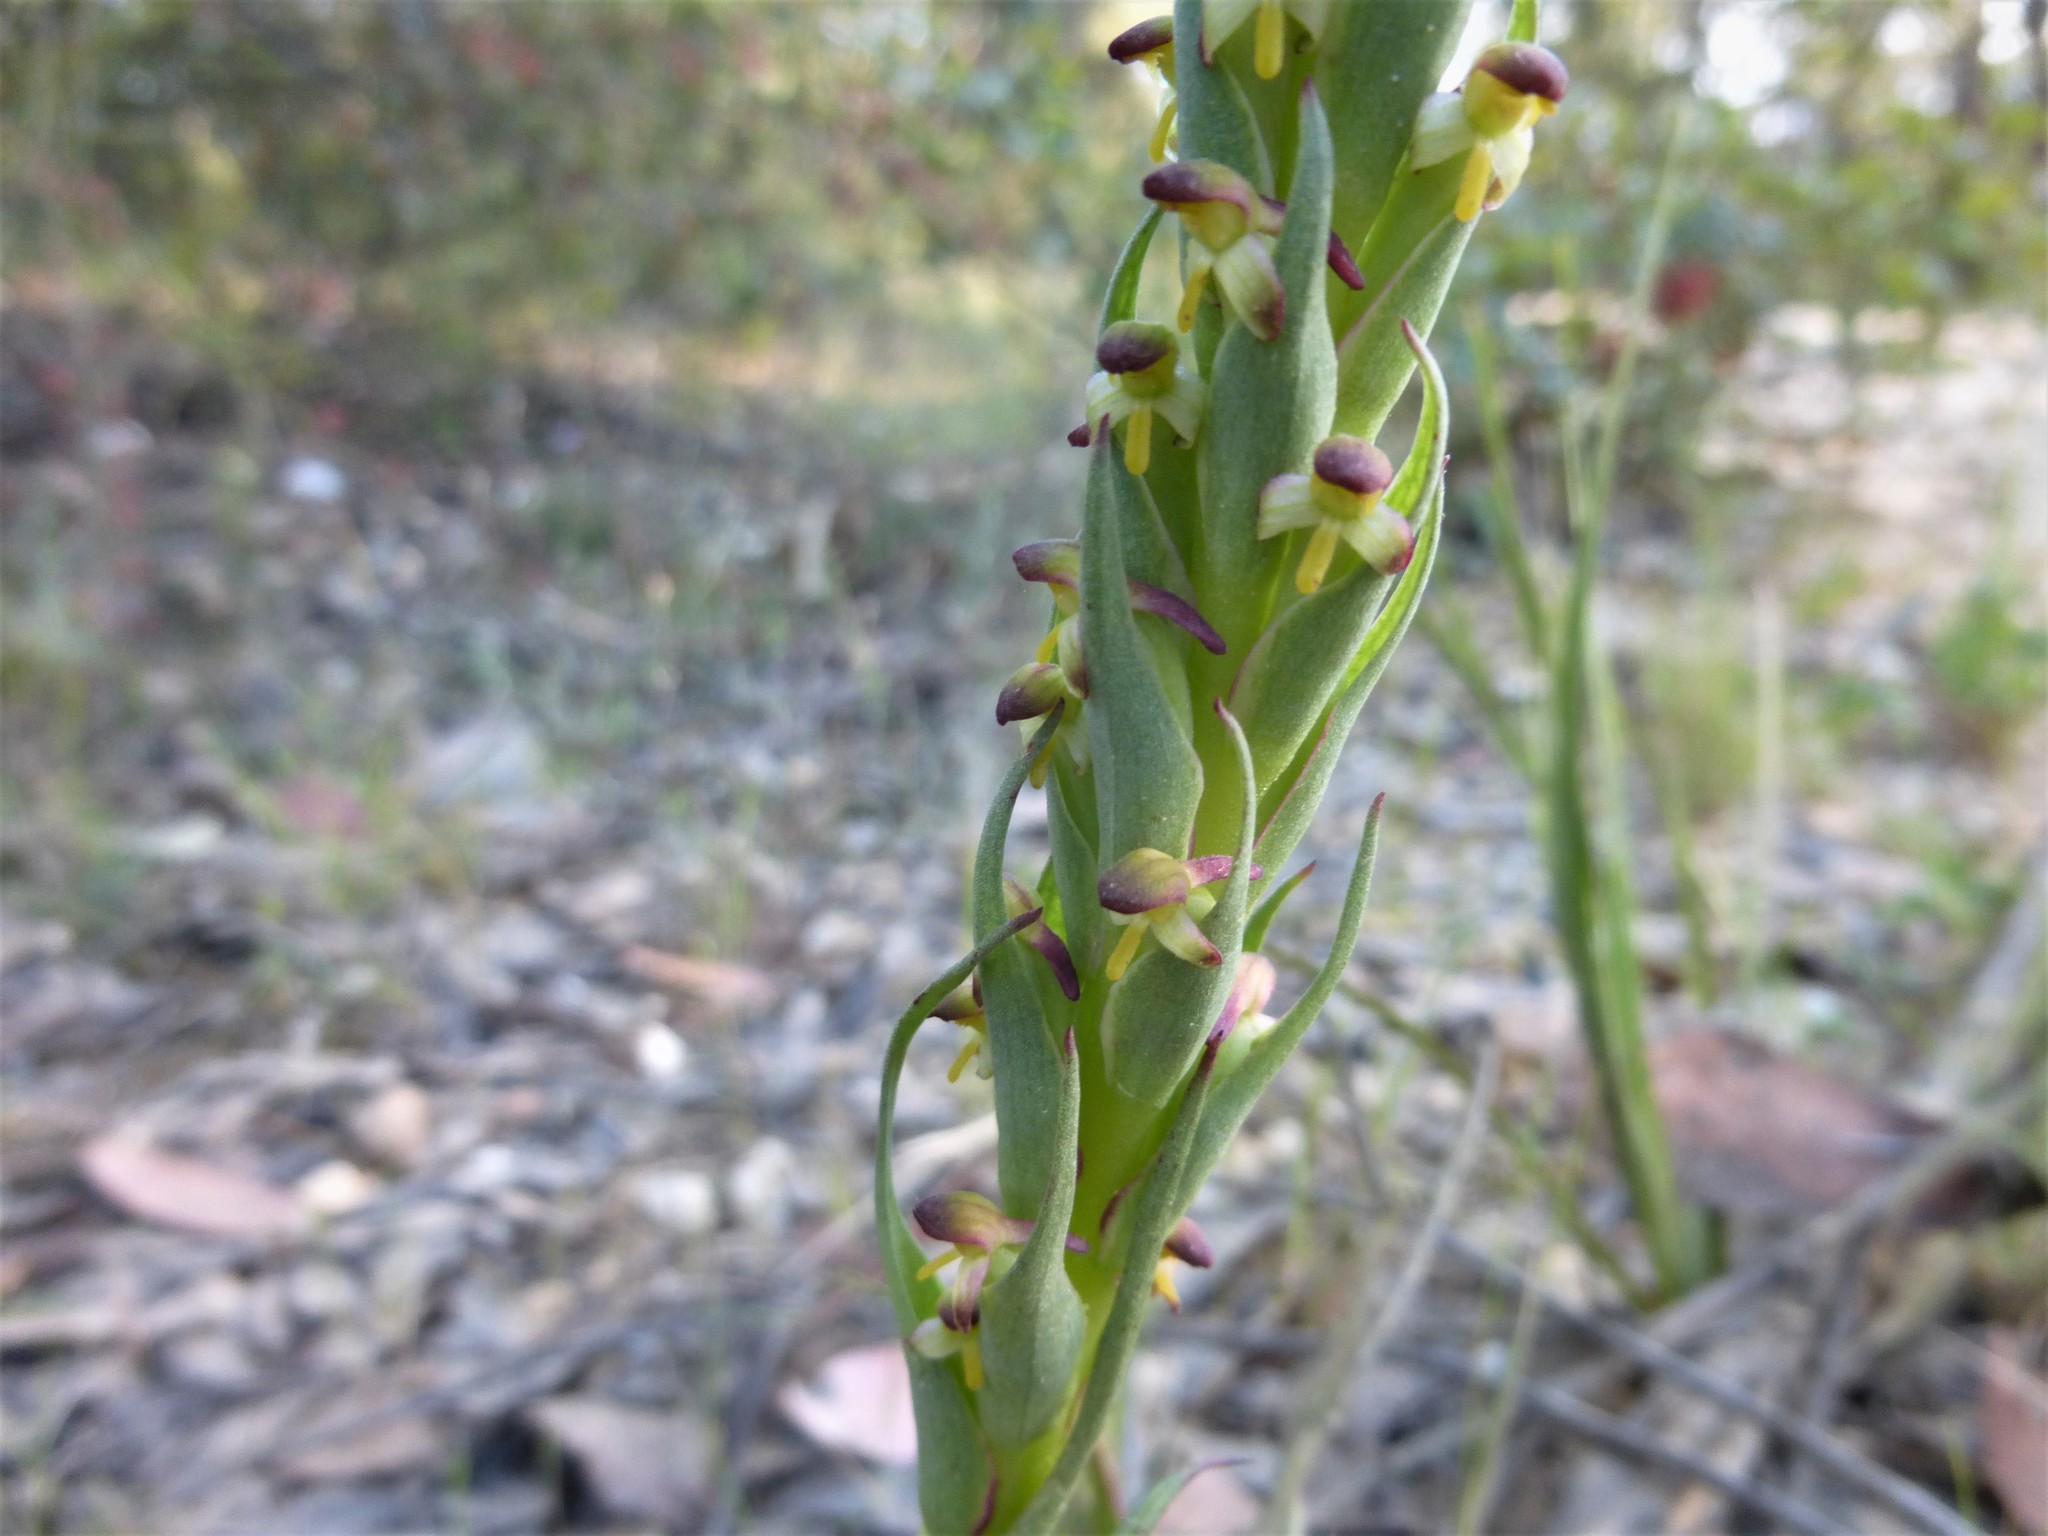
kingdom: Plantae
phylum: Tracheophyta
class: Liliopsida
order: Asparagales
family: Orchidaceae
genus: Disa
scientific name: Disa bracteata
